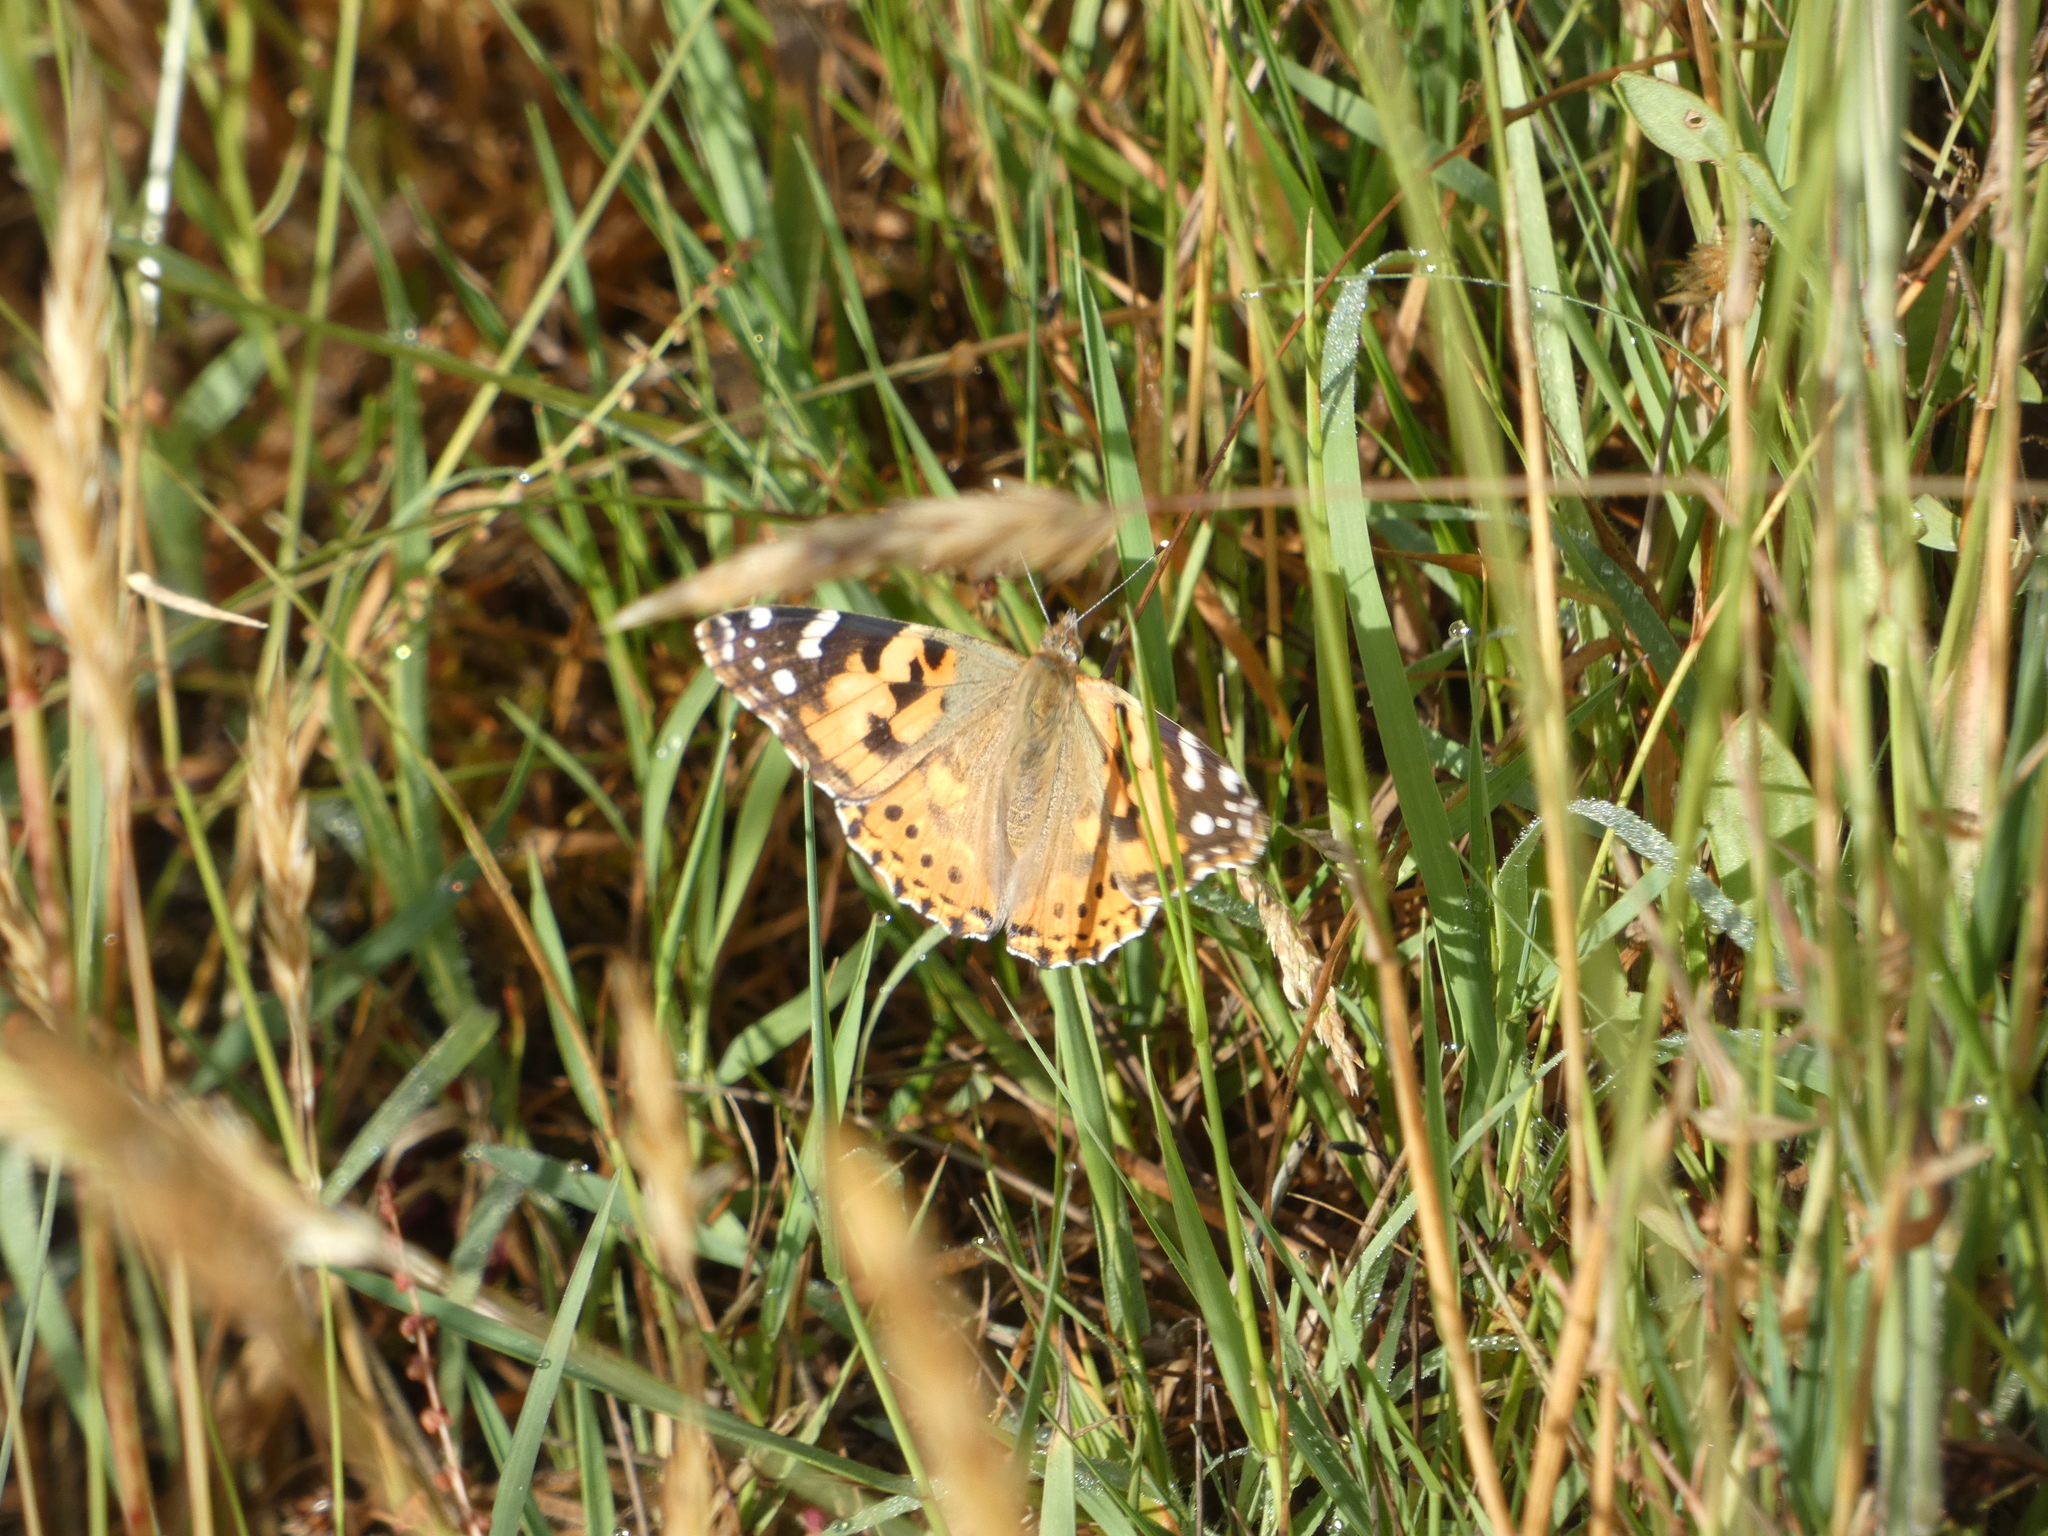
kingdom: Animalia
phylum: Arthropoda
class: Insecta
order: Lepidoptera
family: Nymphalidae
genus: Vanessa
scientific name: Vanessa cardui
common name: Painted lady
